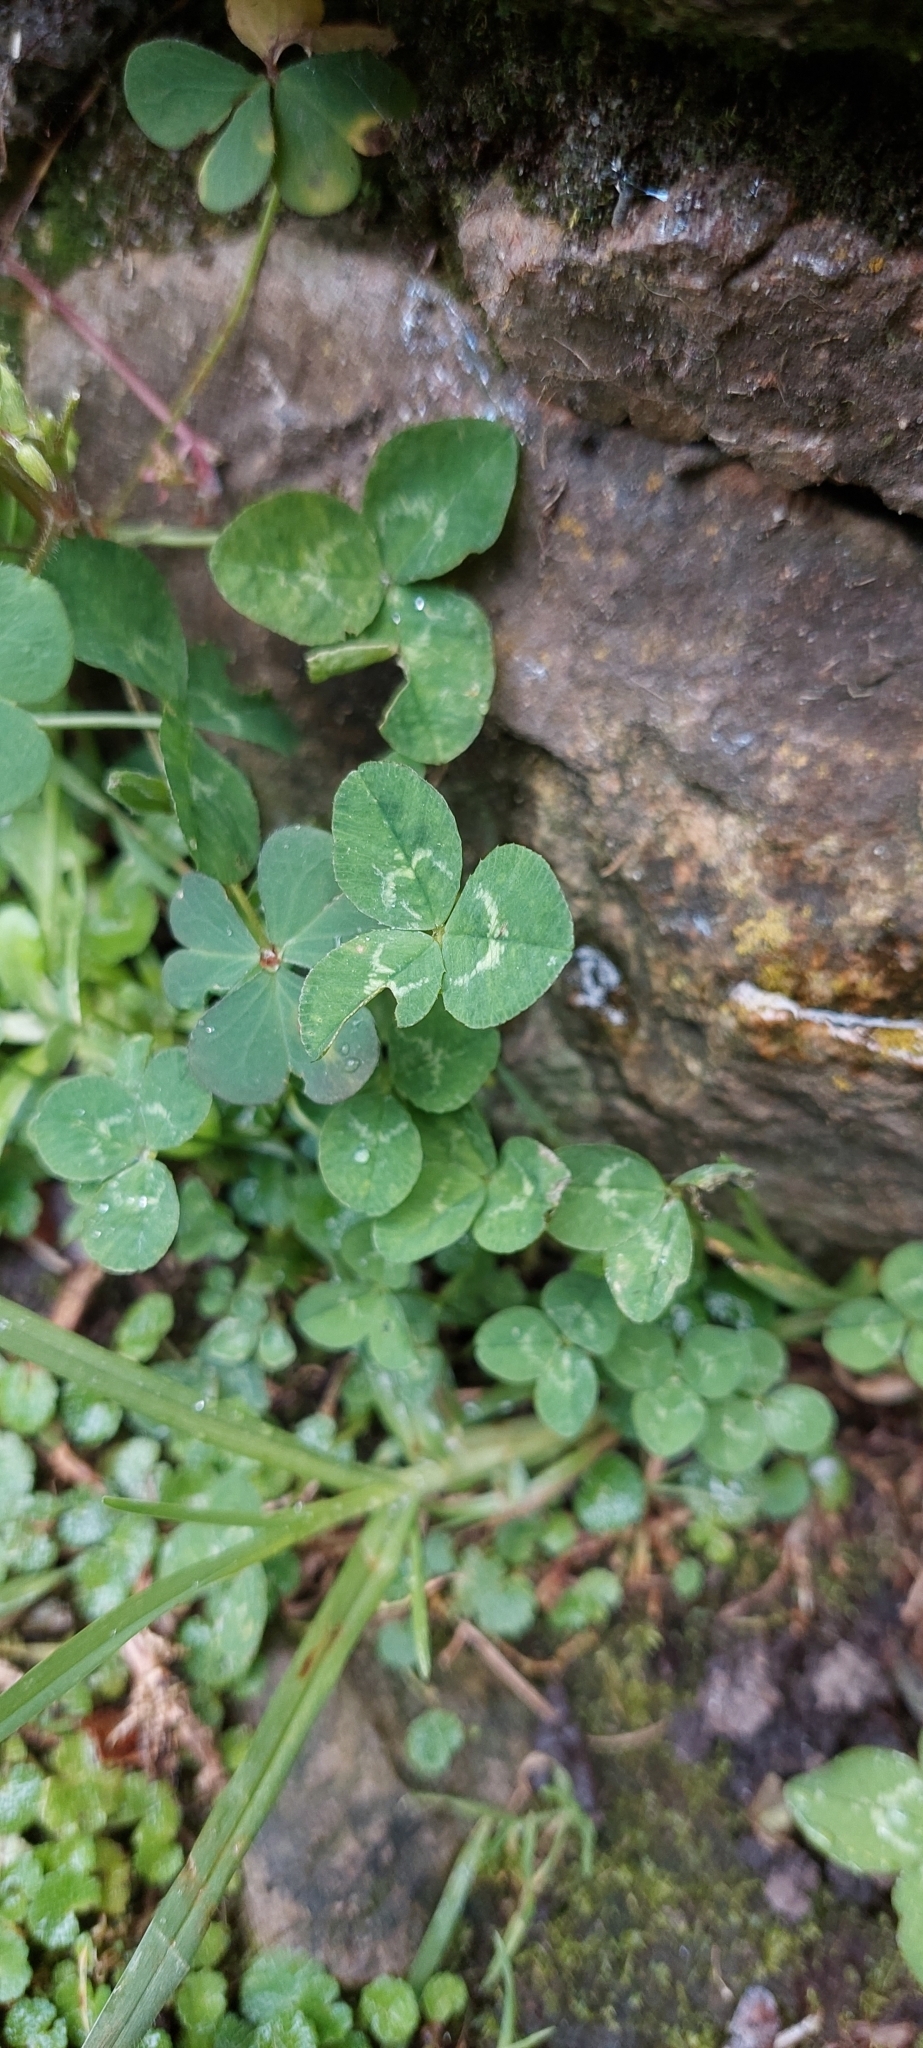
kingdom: Plantae
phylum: Tracheophyta
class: Magnoliopsida
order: Fabales
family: Fabaceae
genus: Trifolium
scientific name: Trifolium repens
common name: White clover
